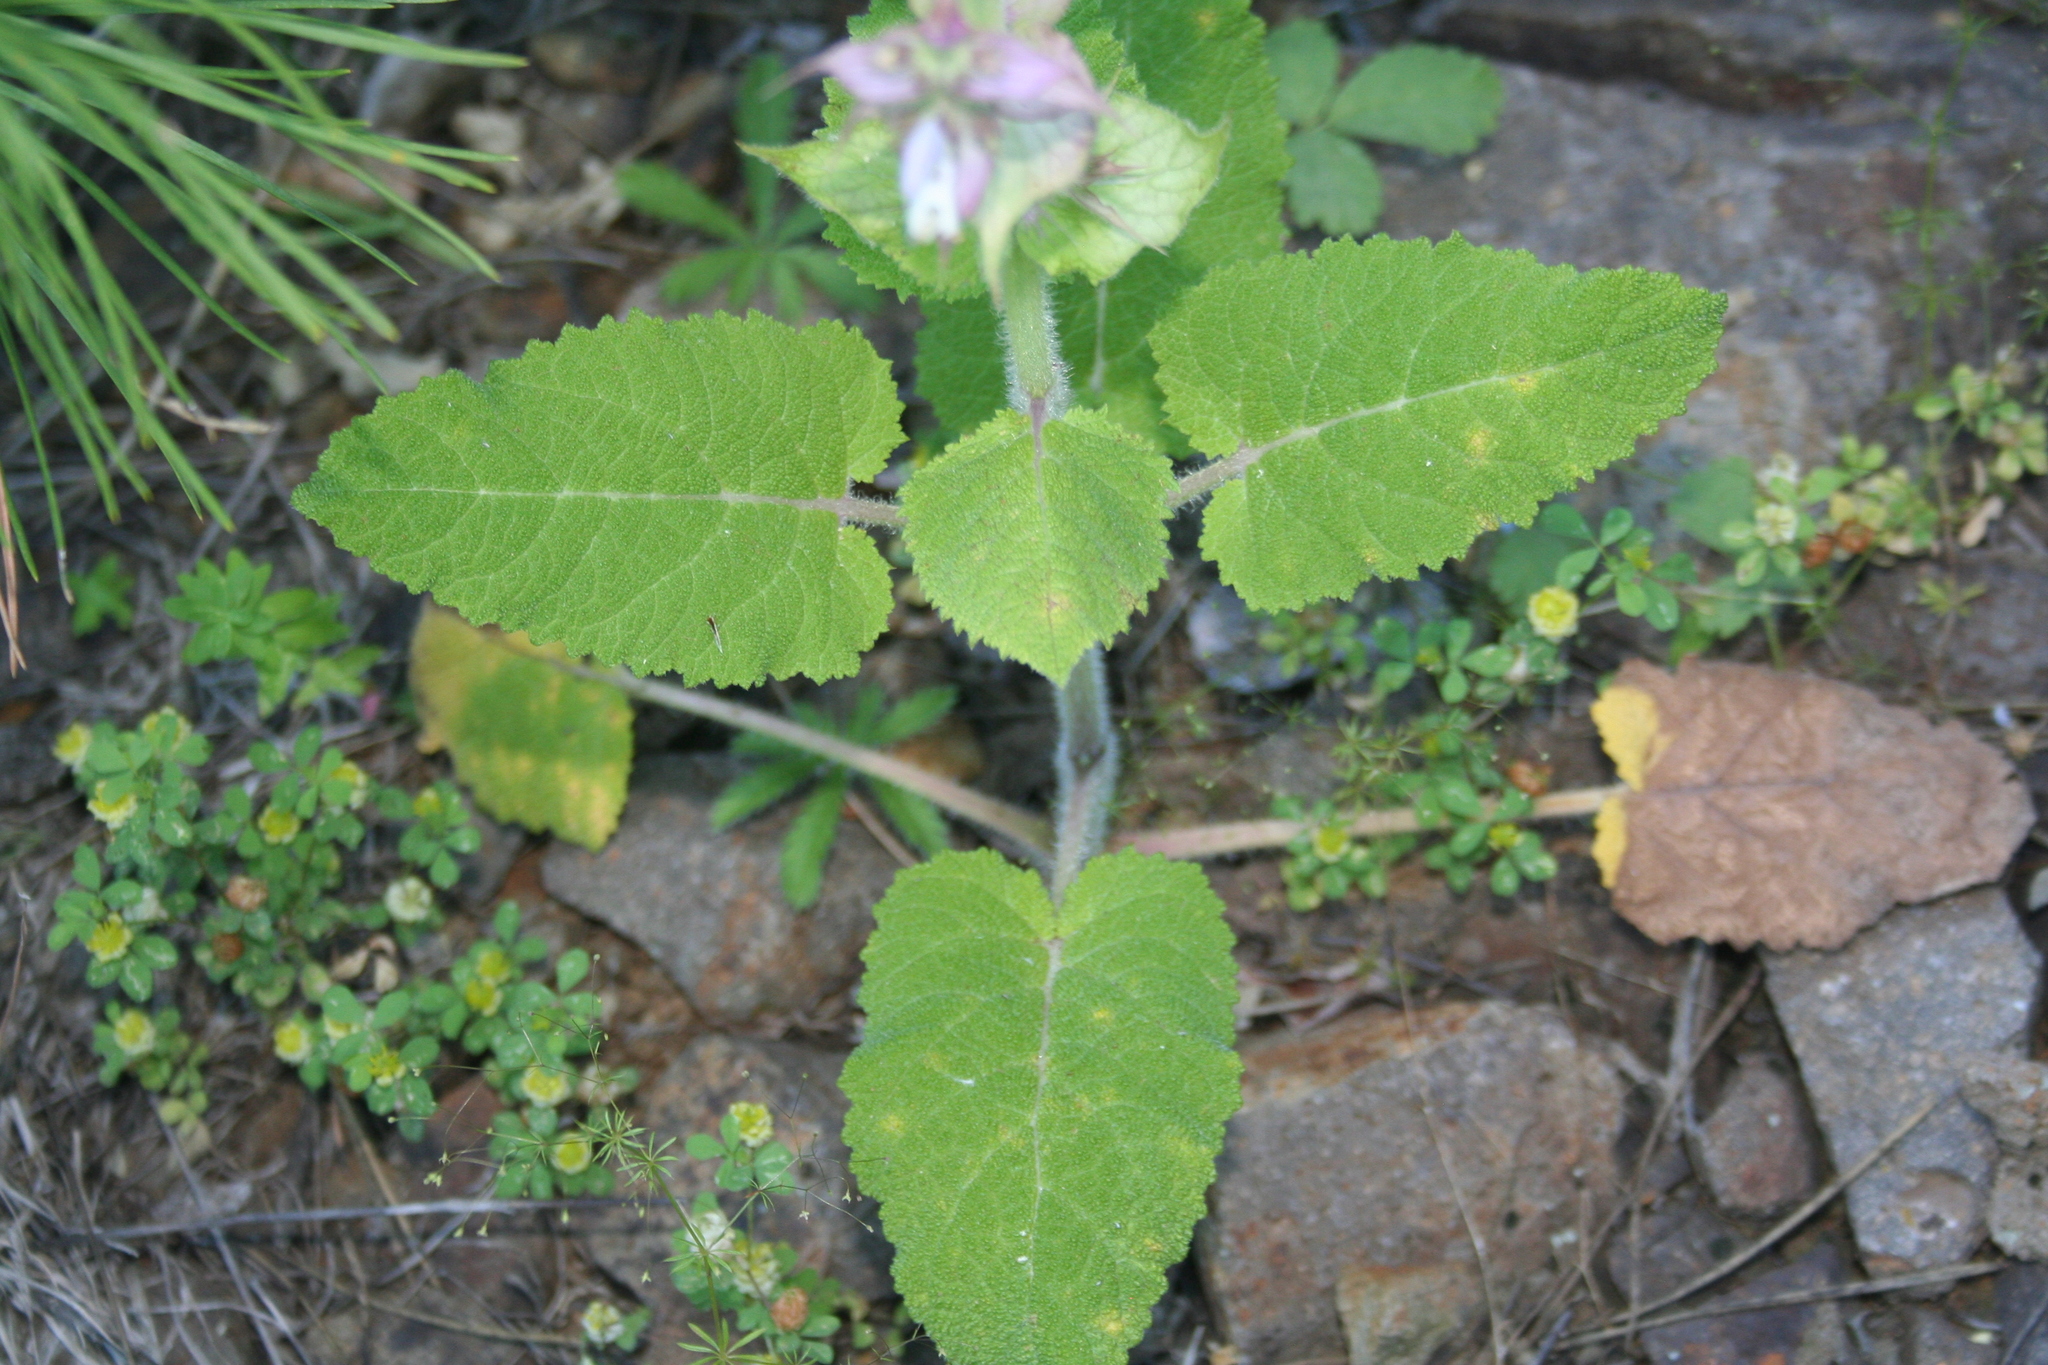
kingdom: Plantae
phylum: Tracheophyta
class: Magnoliopsida
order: Lamiales
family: Lamiaceae
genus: Salvia
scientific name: Salvia sclarea
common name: Clary
